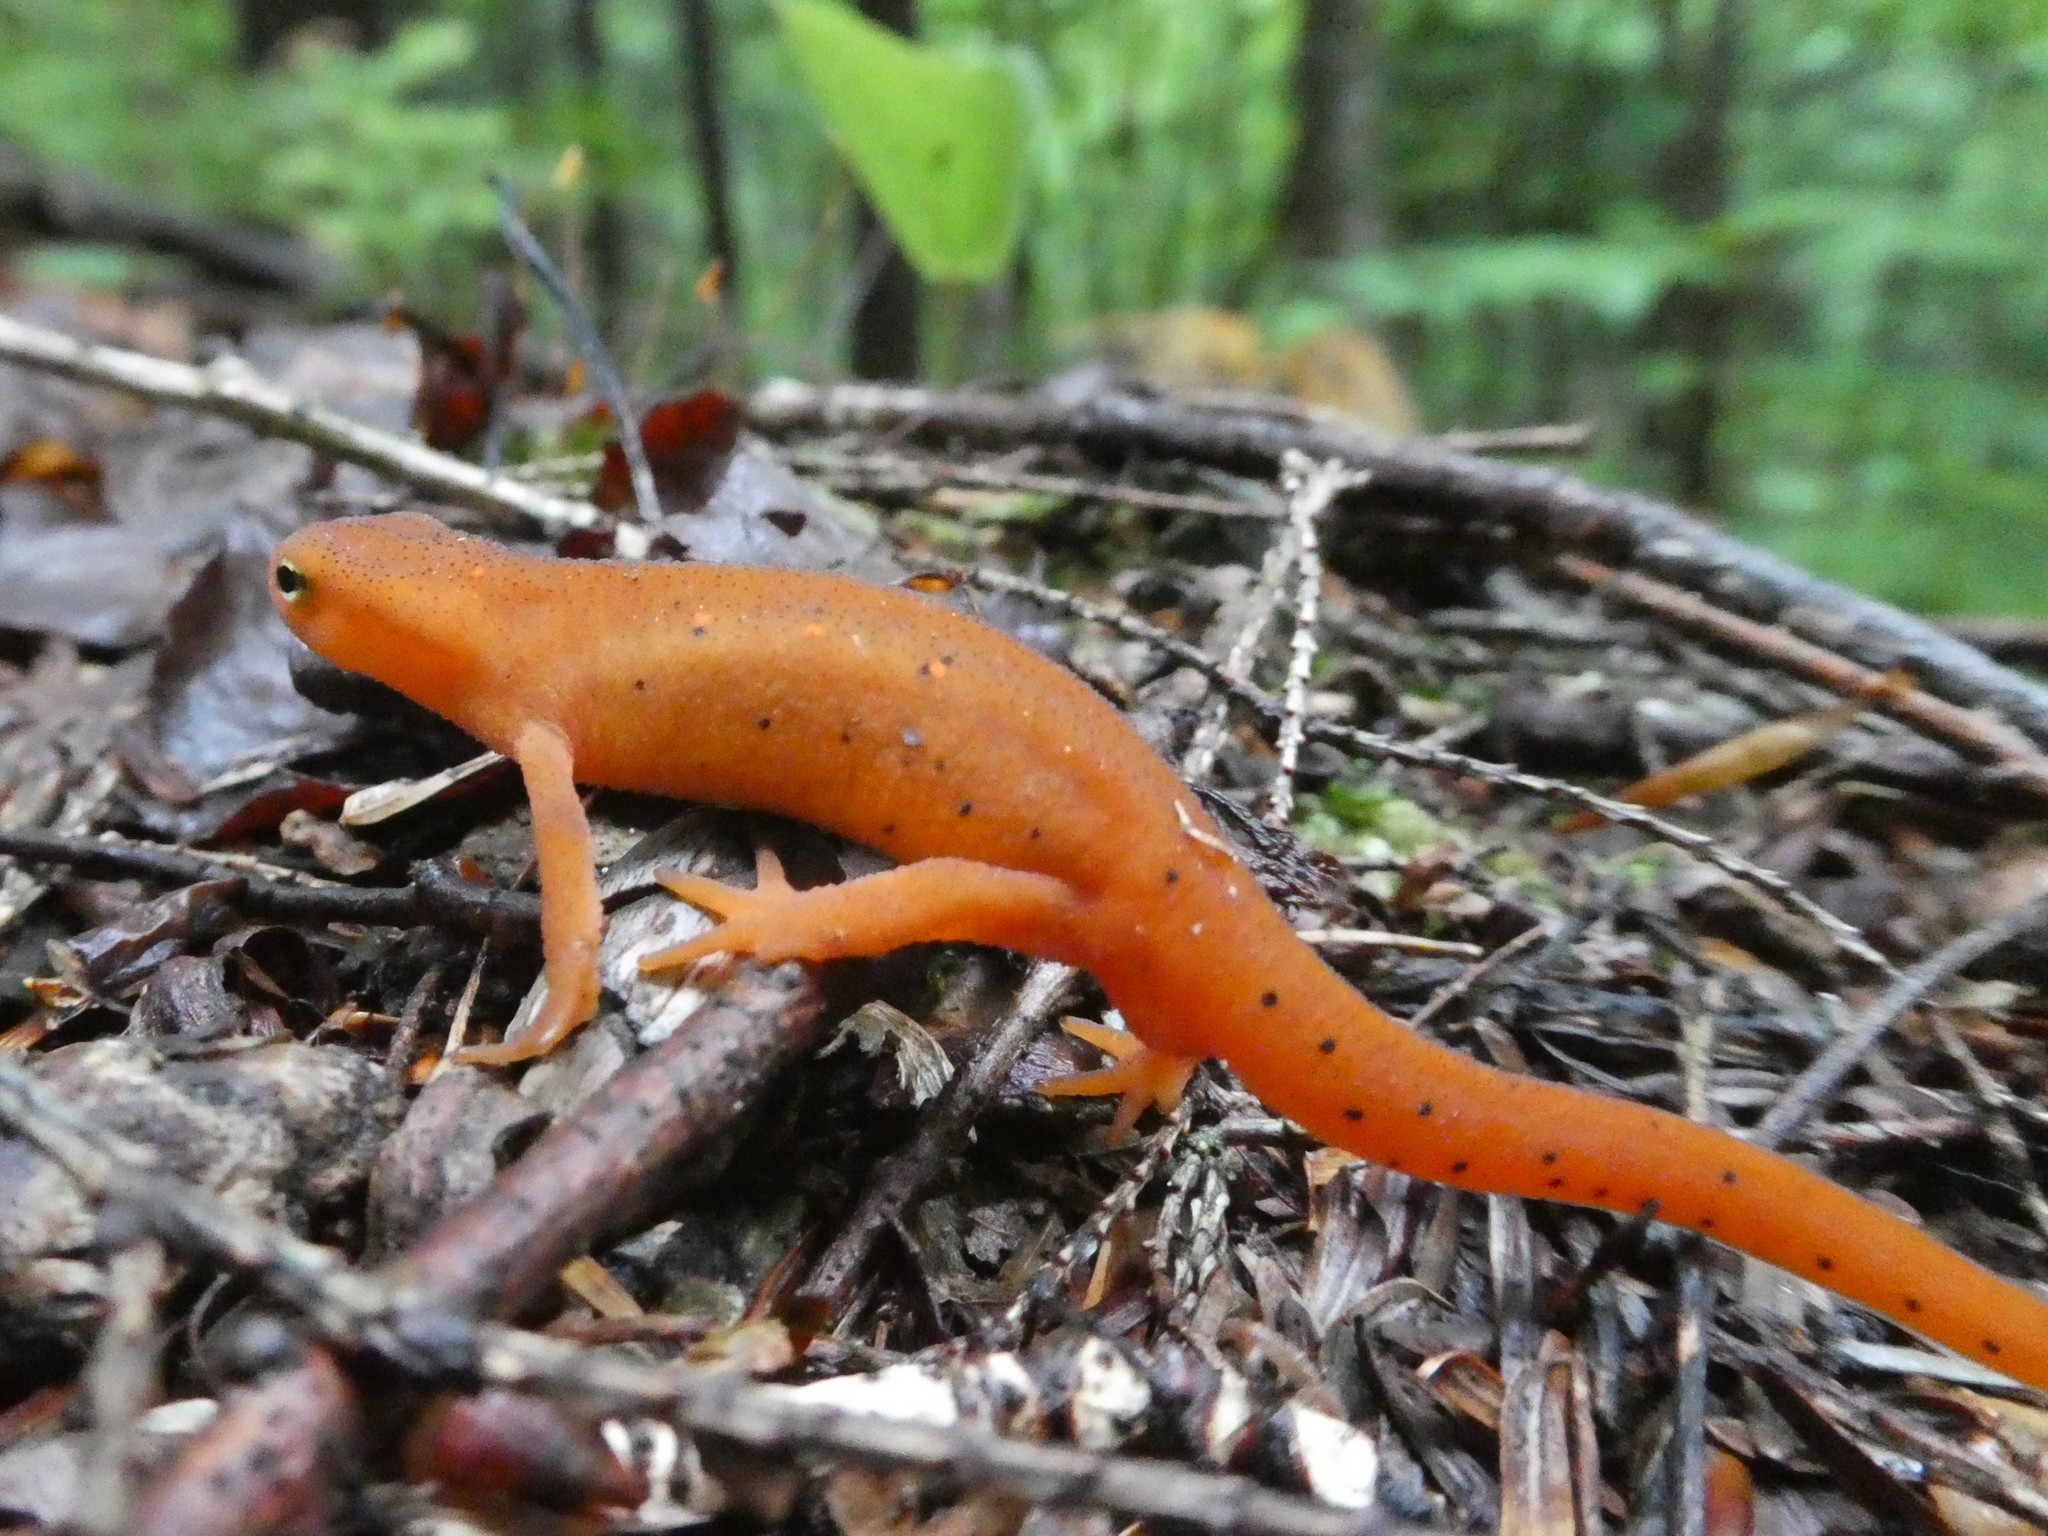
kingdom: Animalia
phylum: Chordata
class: Amphibia
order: Caudata
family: Salamandridae
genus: Notophthalmus
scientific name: Notophthalmus viridescens
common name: Eastern newt
